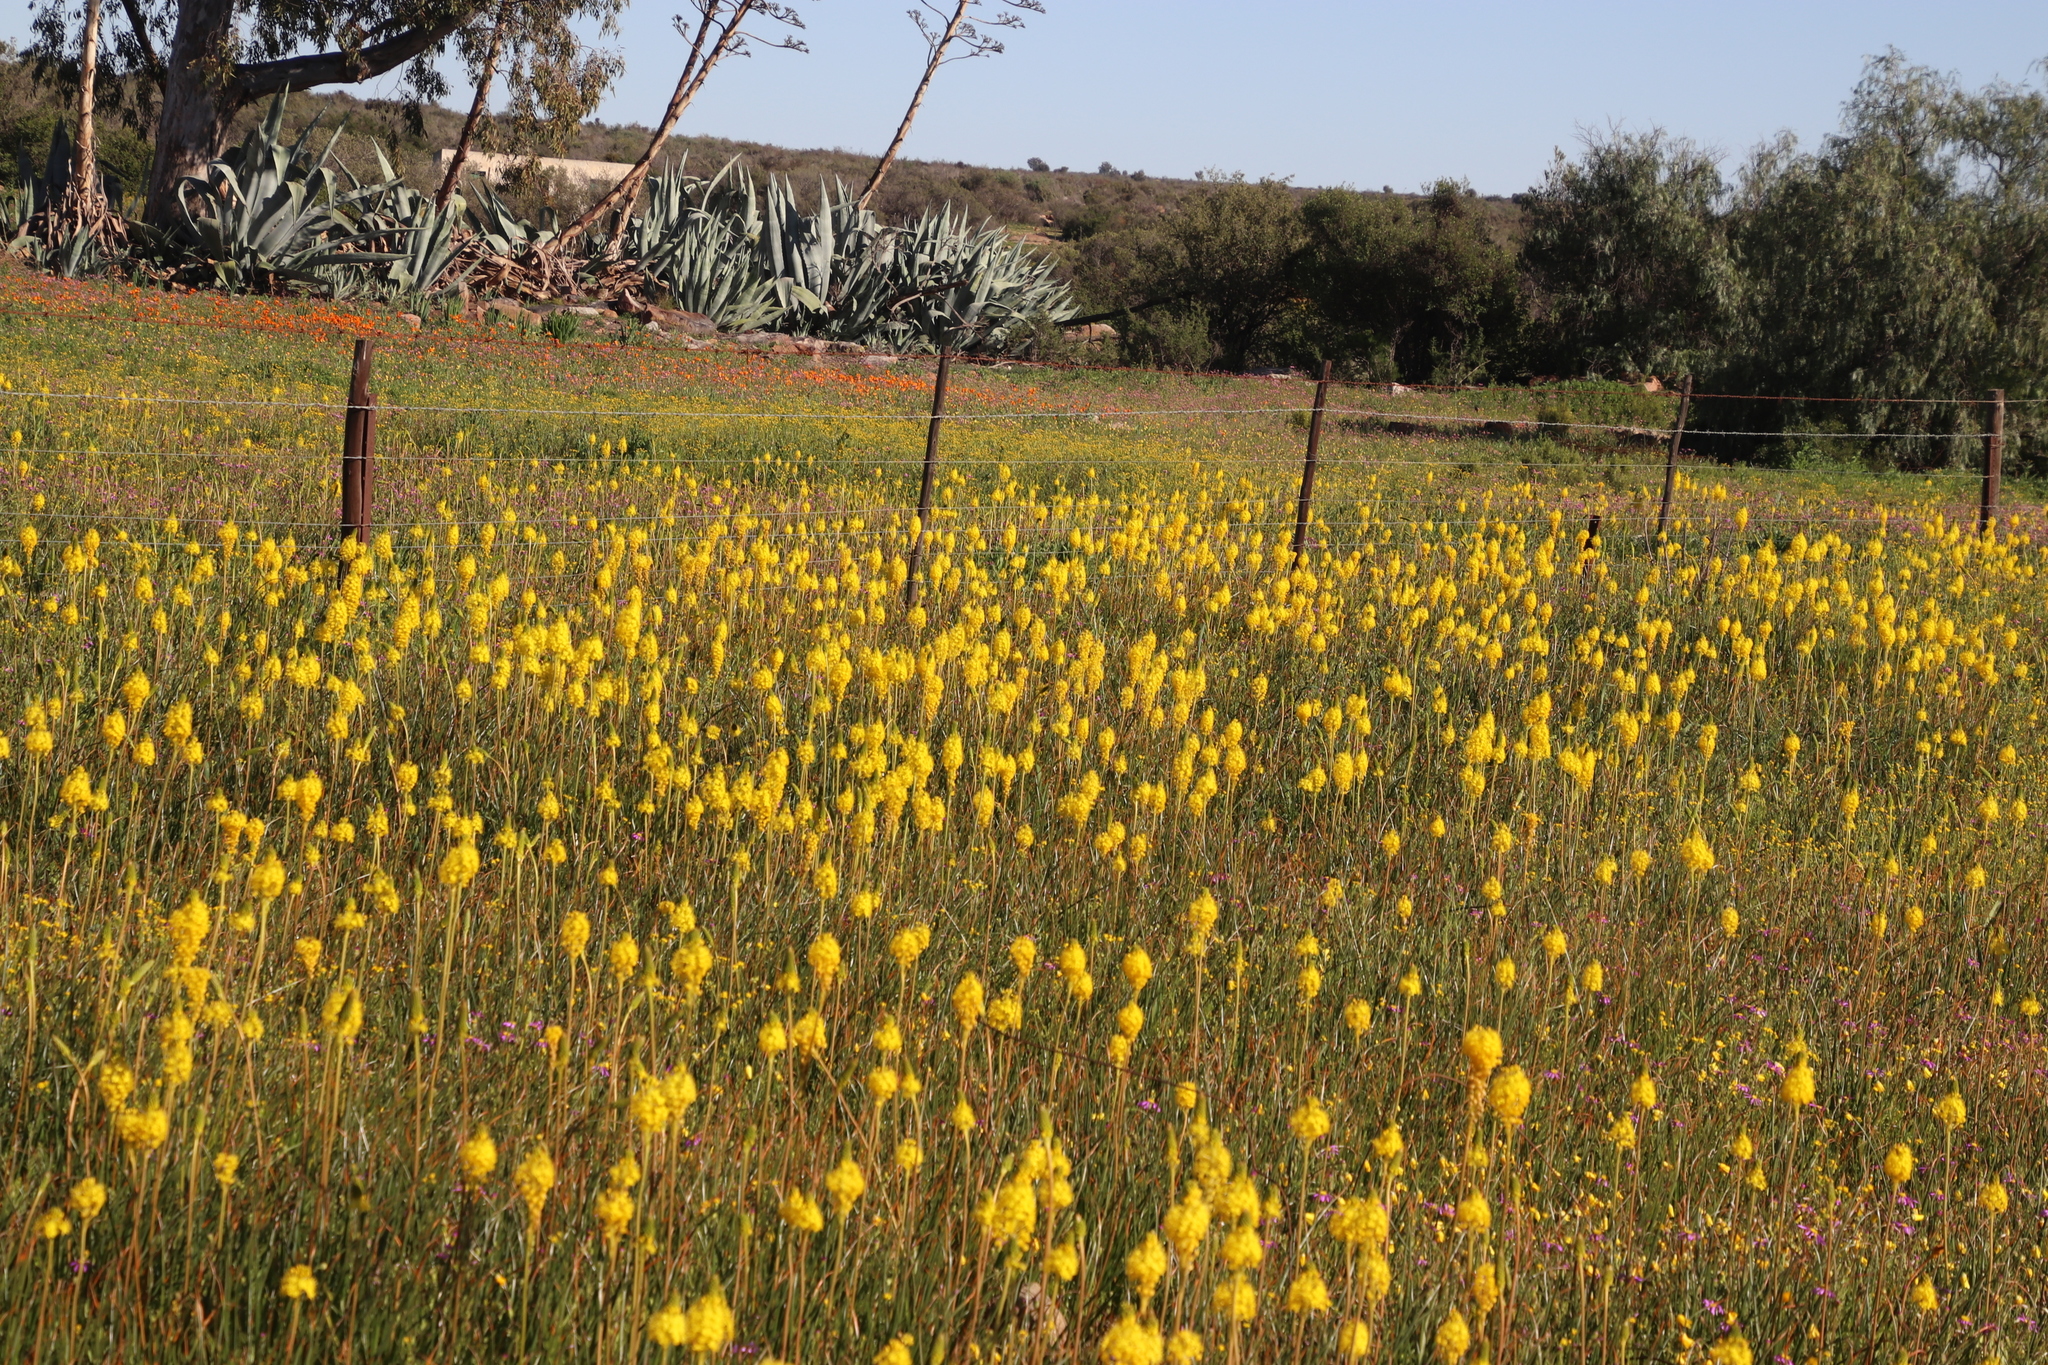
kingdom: Plantae
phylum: Tracheophyta
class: Liliopsida
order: Asparagales
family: Asphodelaceae
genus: Bulbinella
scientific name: Bulbinella nutans
